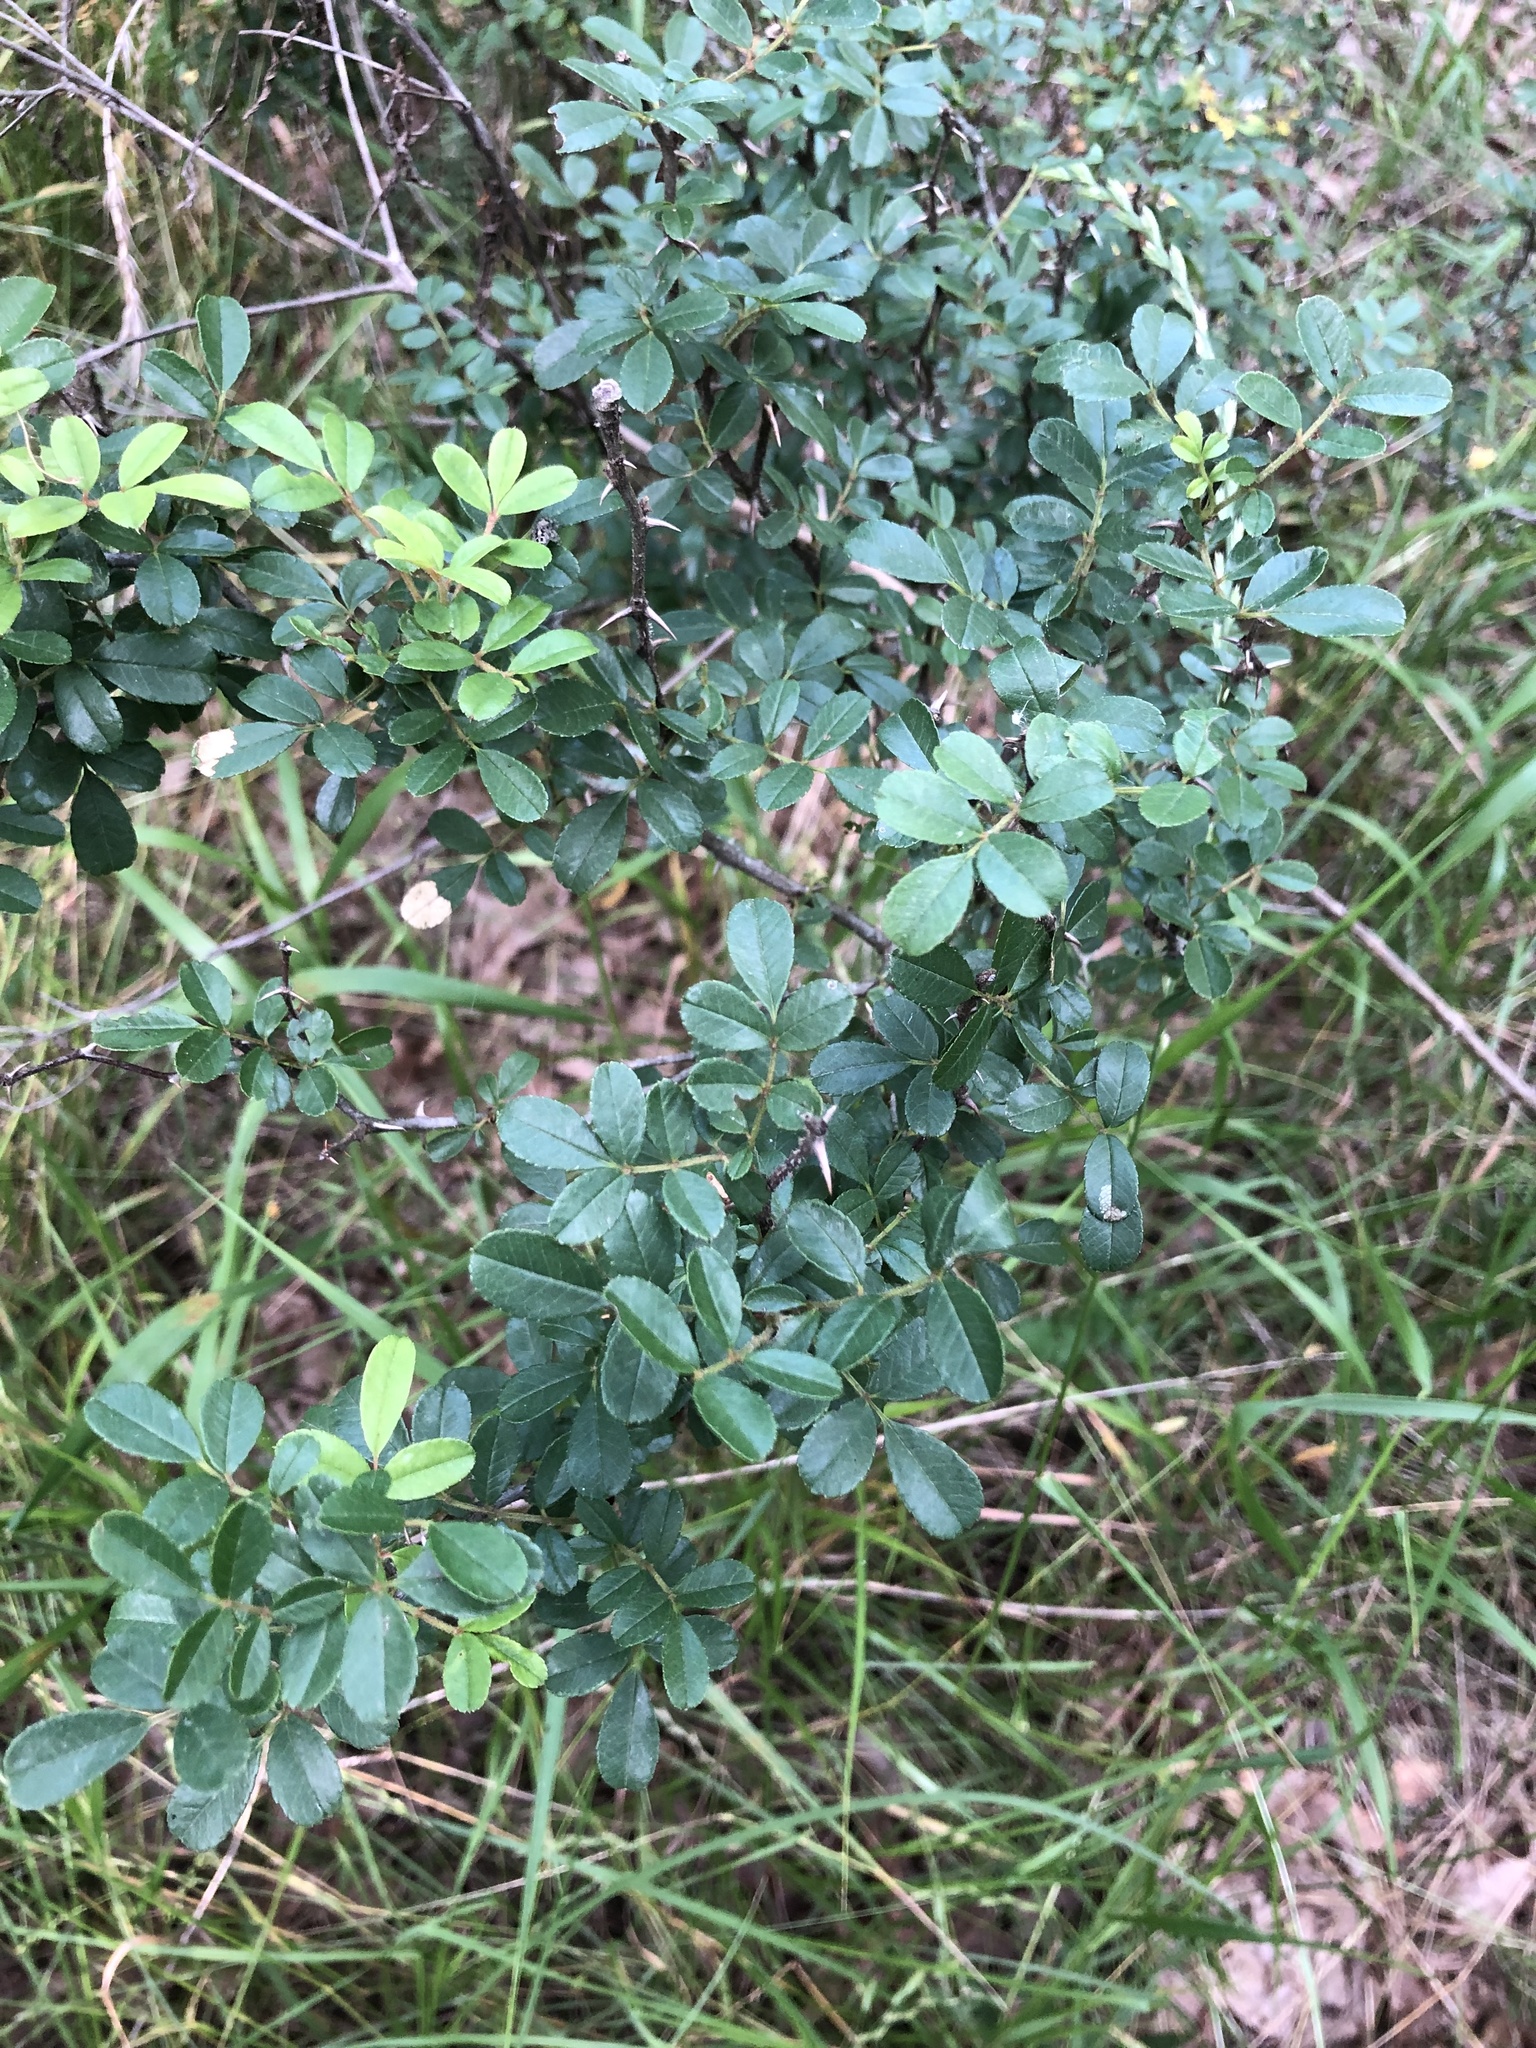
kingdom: Plantae
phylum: Tracheophyta
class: Magnoliopsida
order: Rosales
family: Rosaceae
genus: Rosa
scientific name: Rosa bracteata
